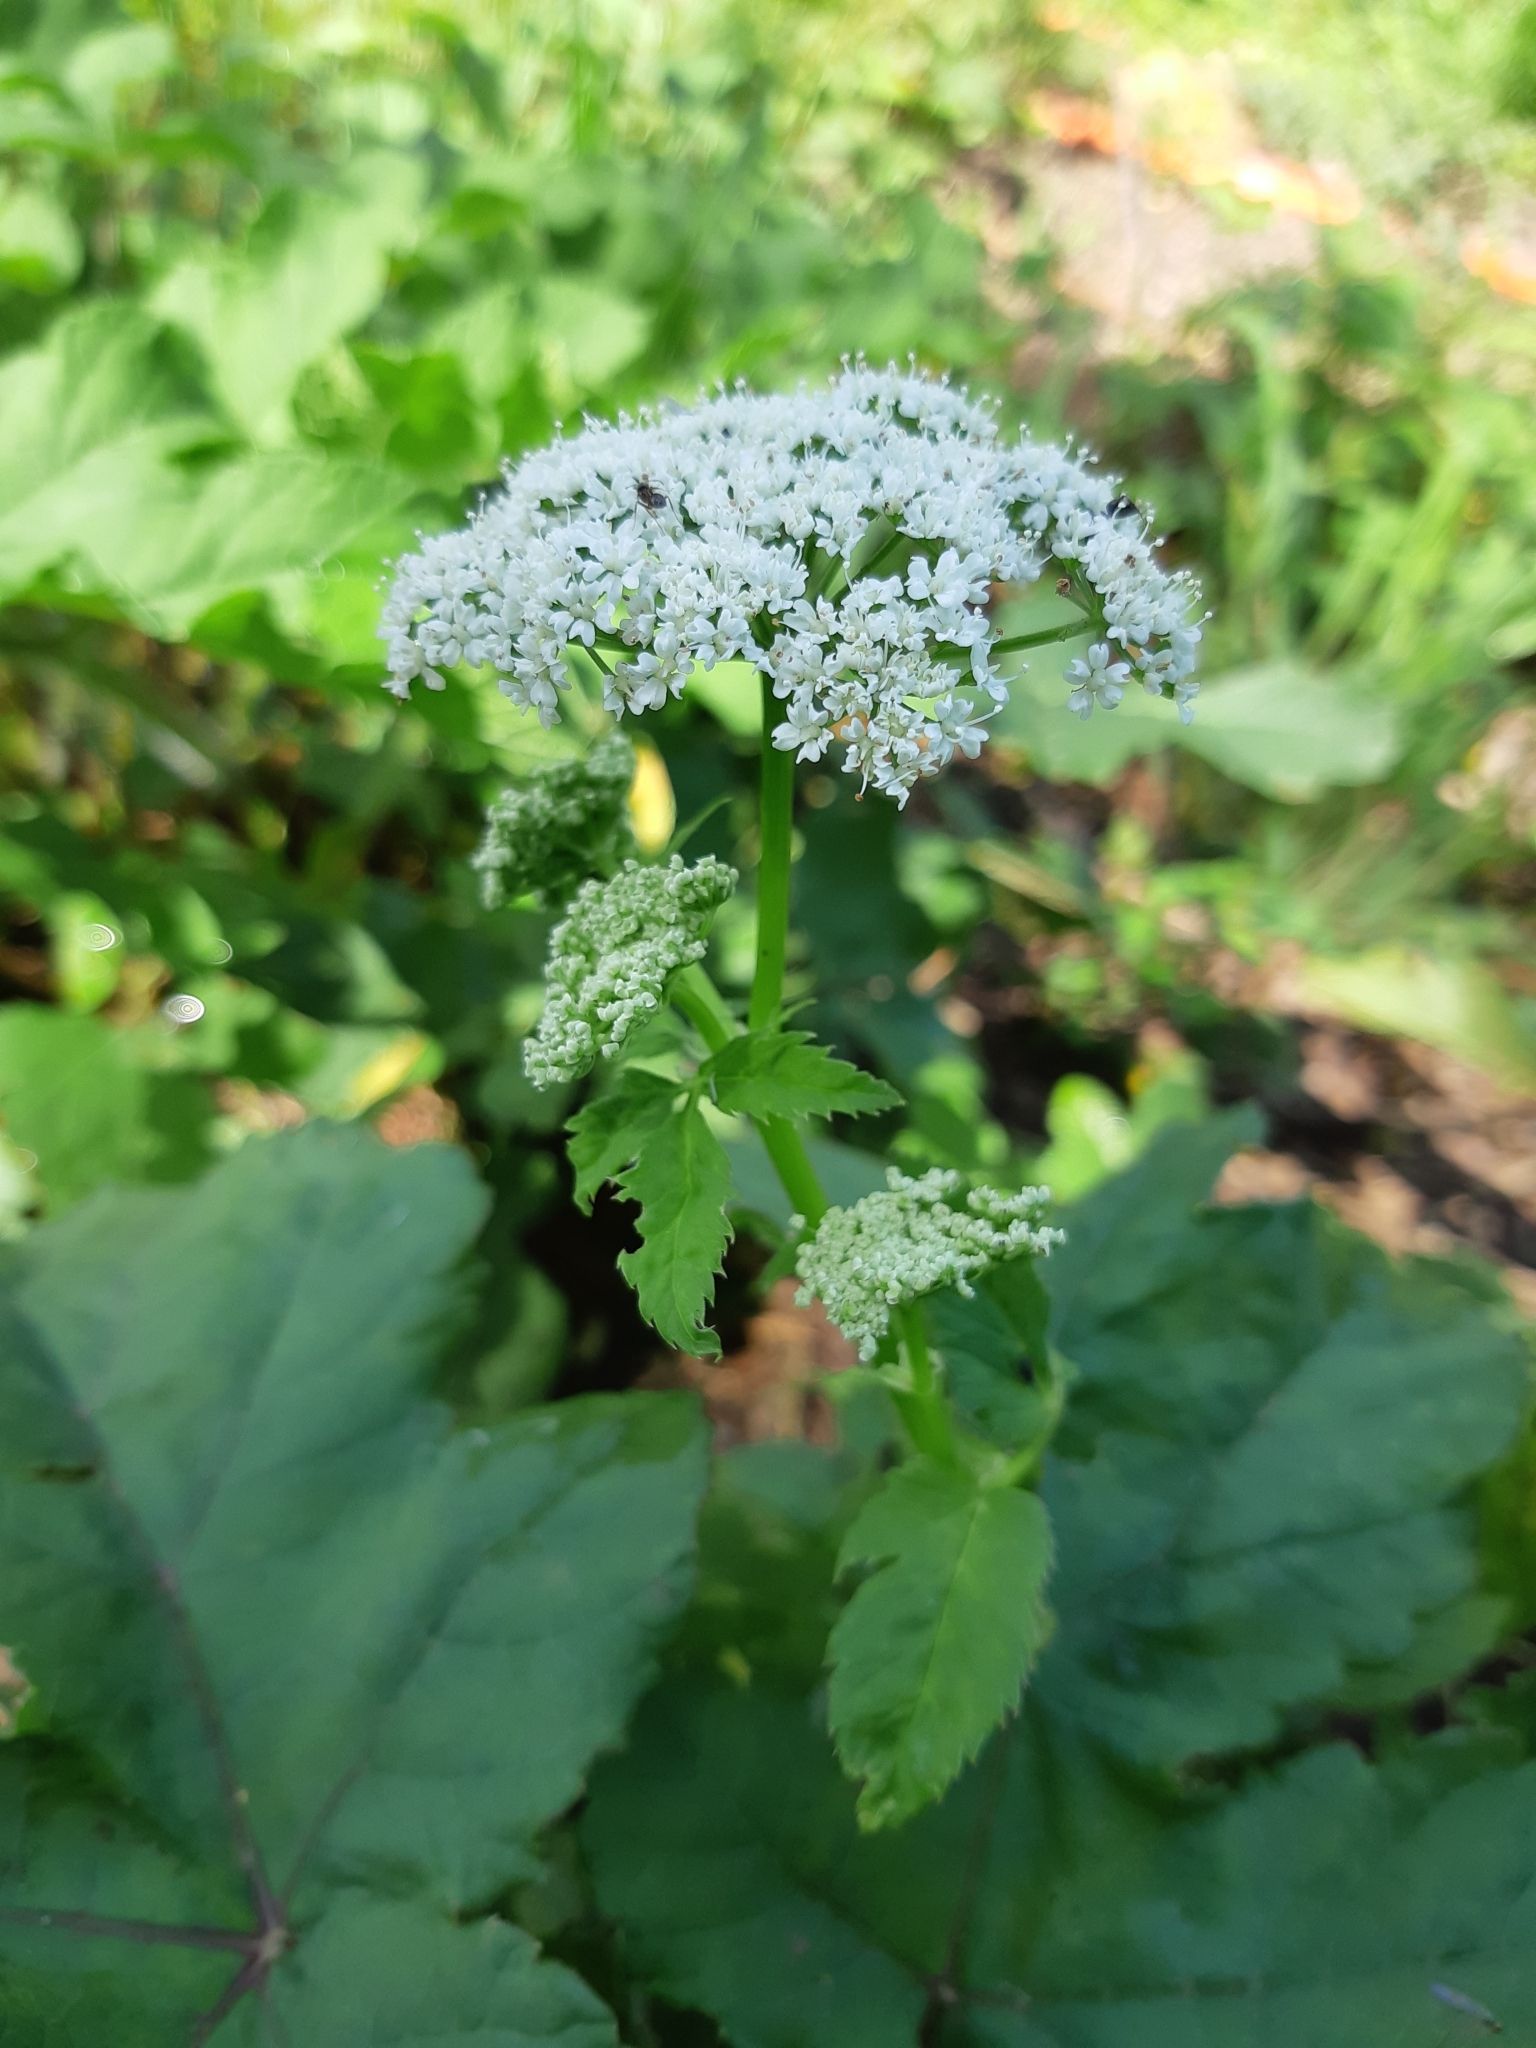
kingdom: Plantae
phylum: Tracheophyta
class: Magnoliopsida
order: Apiales
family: Apiaceae
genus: Aegopodium
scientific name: Aegopodium podagraria
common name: Ground-elder
